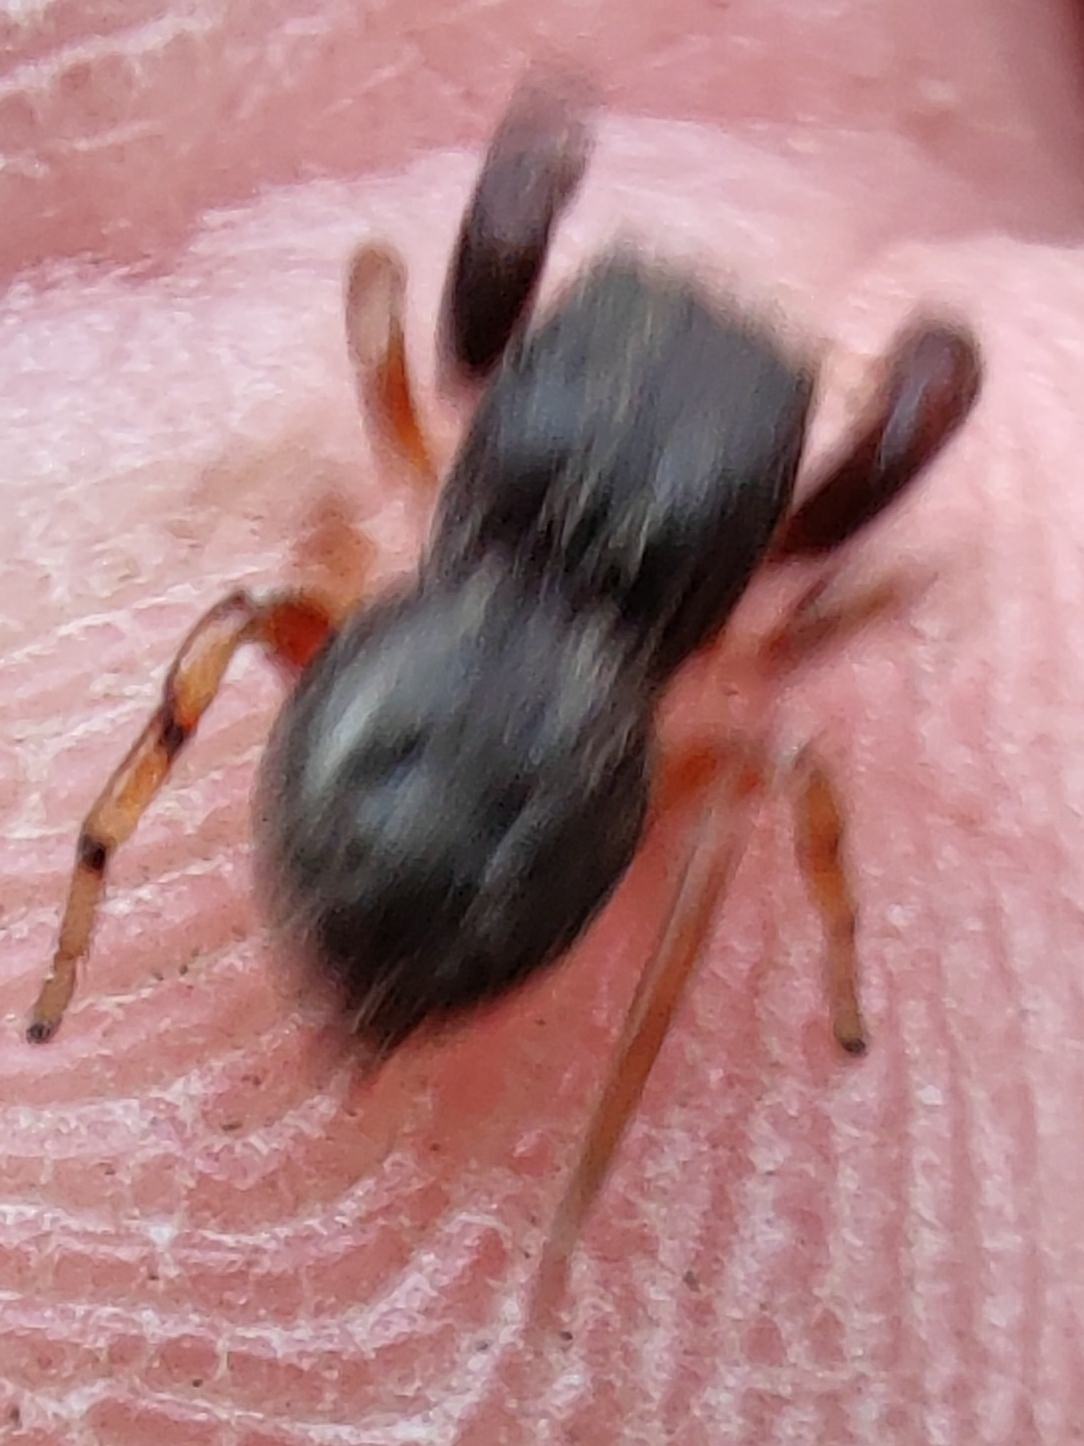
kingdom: Animalia
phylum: Arthropoda
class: Arachnida
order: Araneae
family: Salticidae
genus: Ballus
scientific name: Ballus chalybeius
